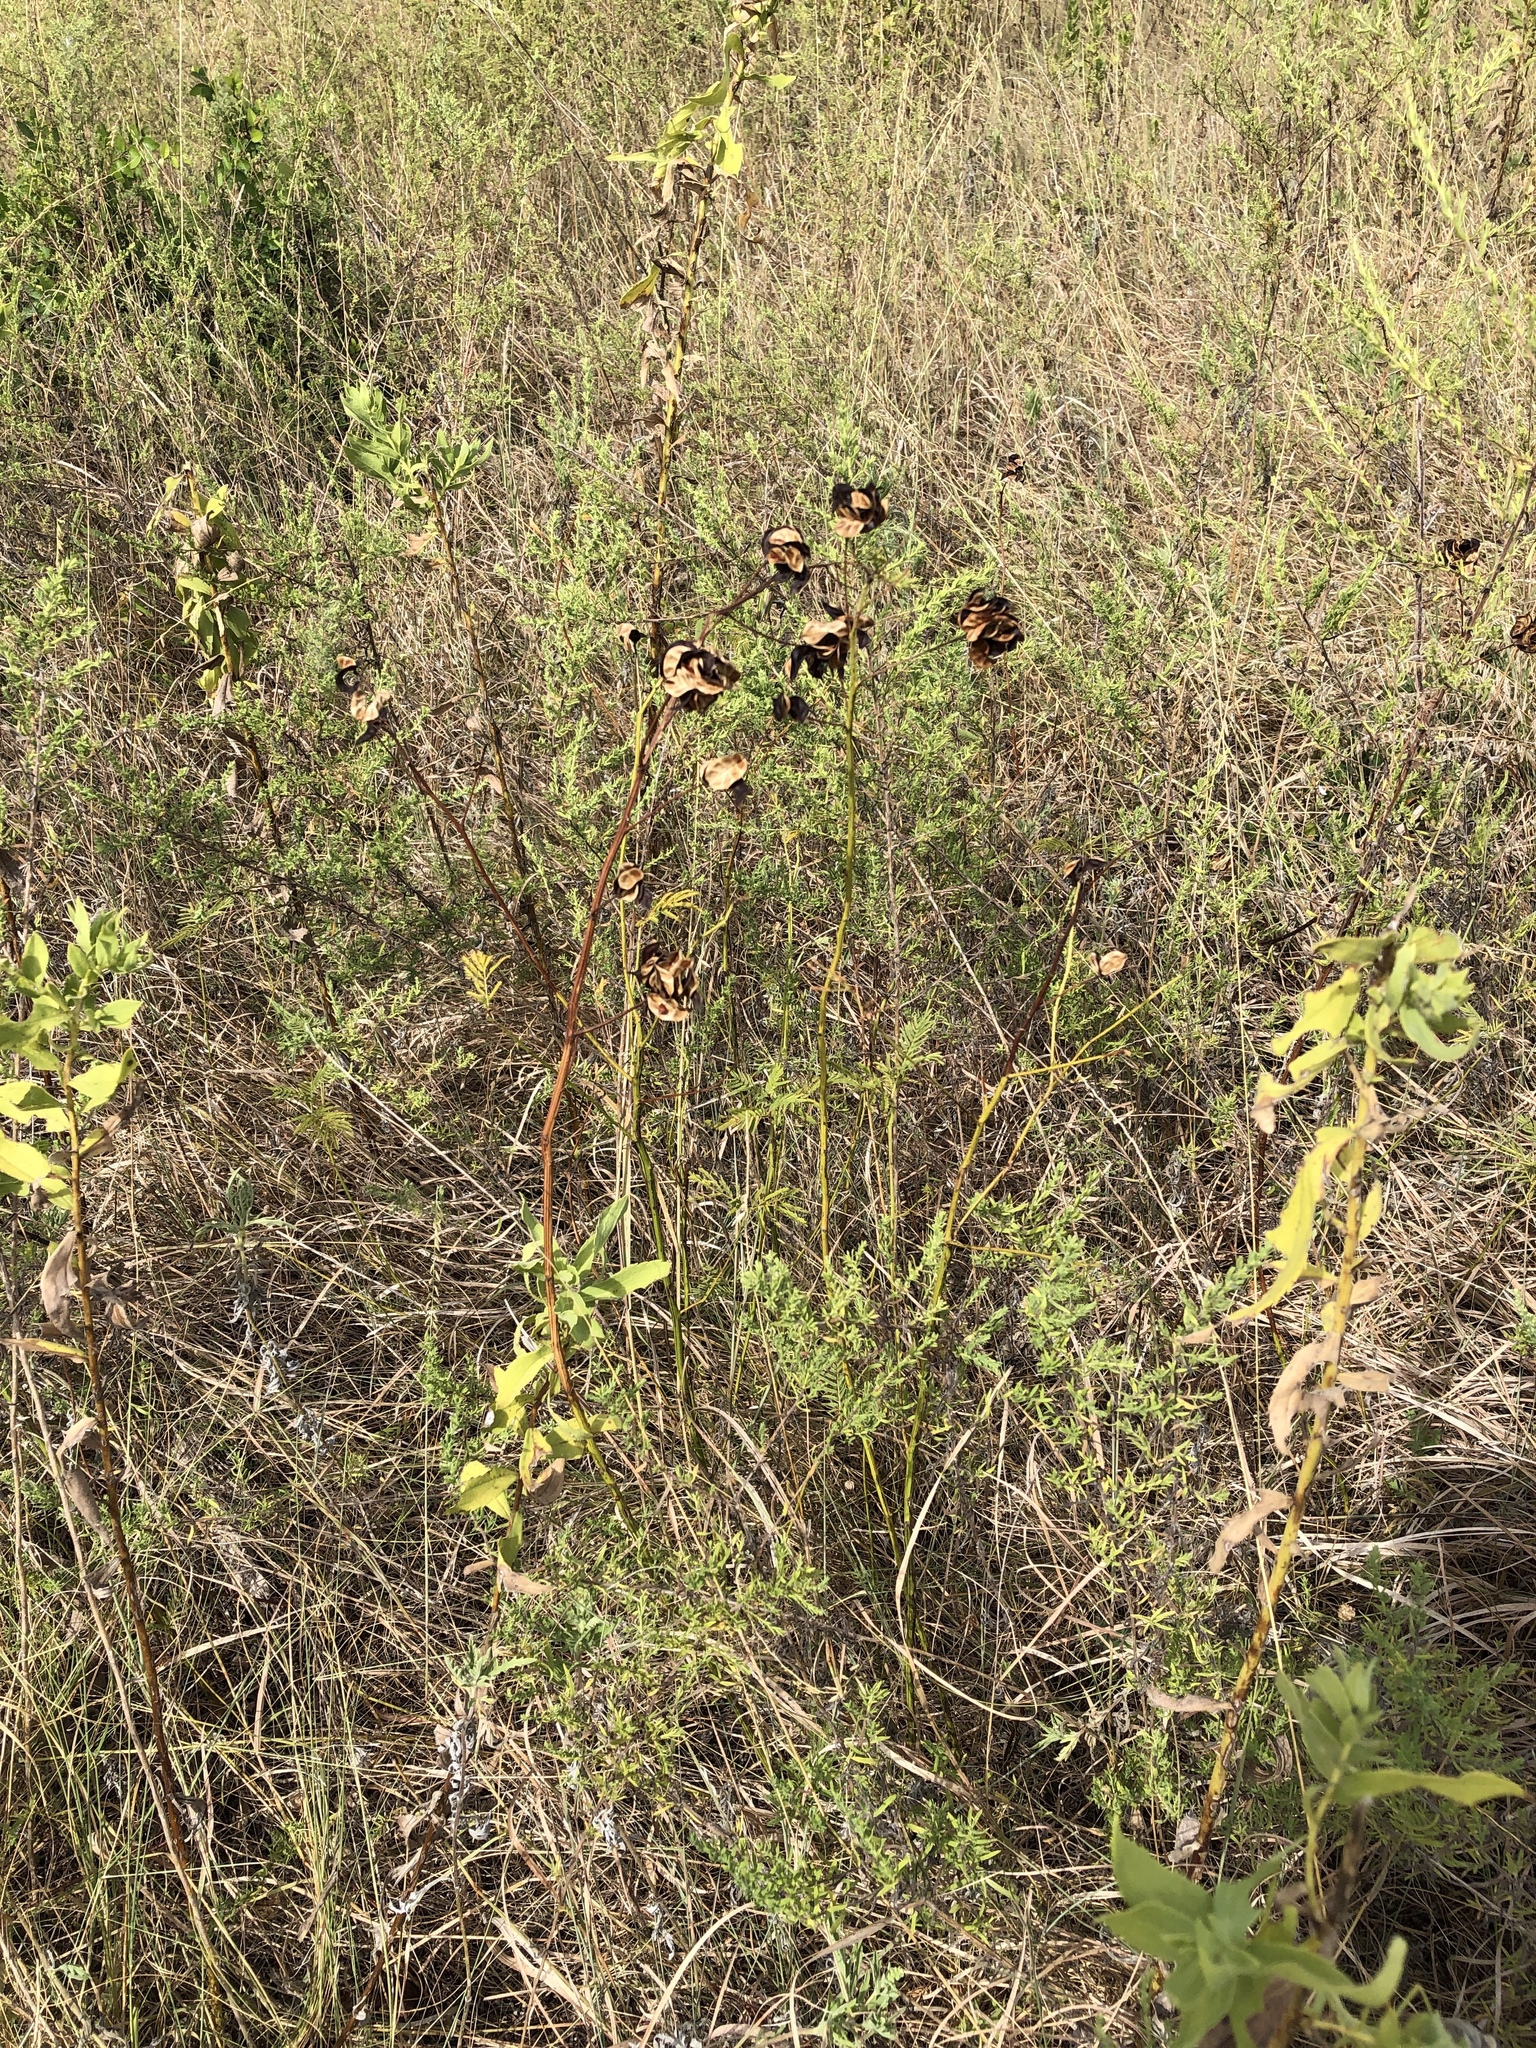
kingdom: Plantae
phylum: Tracheophyta
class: Magnoliopsida
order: Fabales
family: Fabaceae
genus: Desmanthus
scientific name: Desmanthus illinoensis
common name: Illinois bundle-flower
